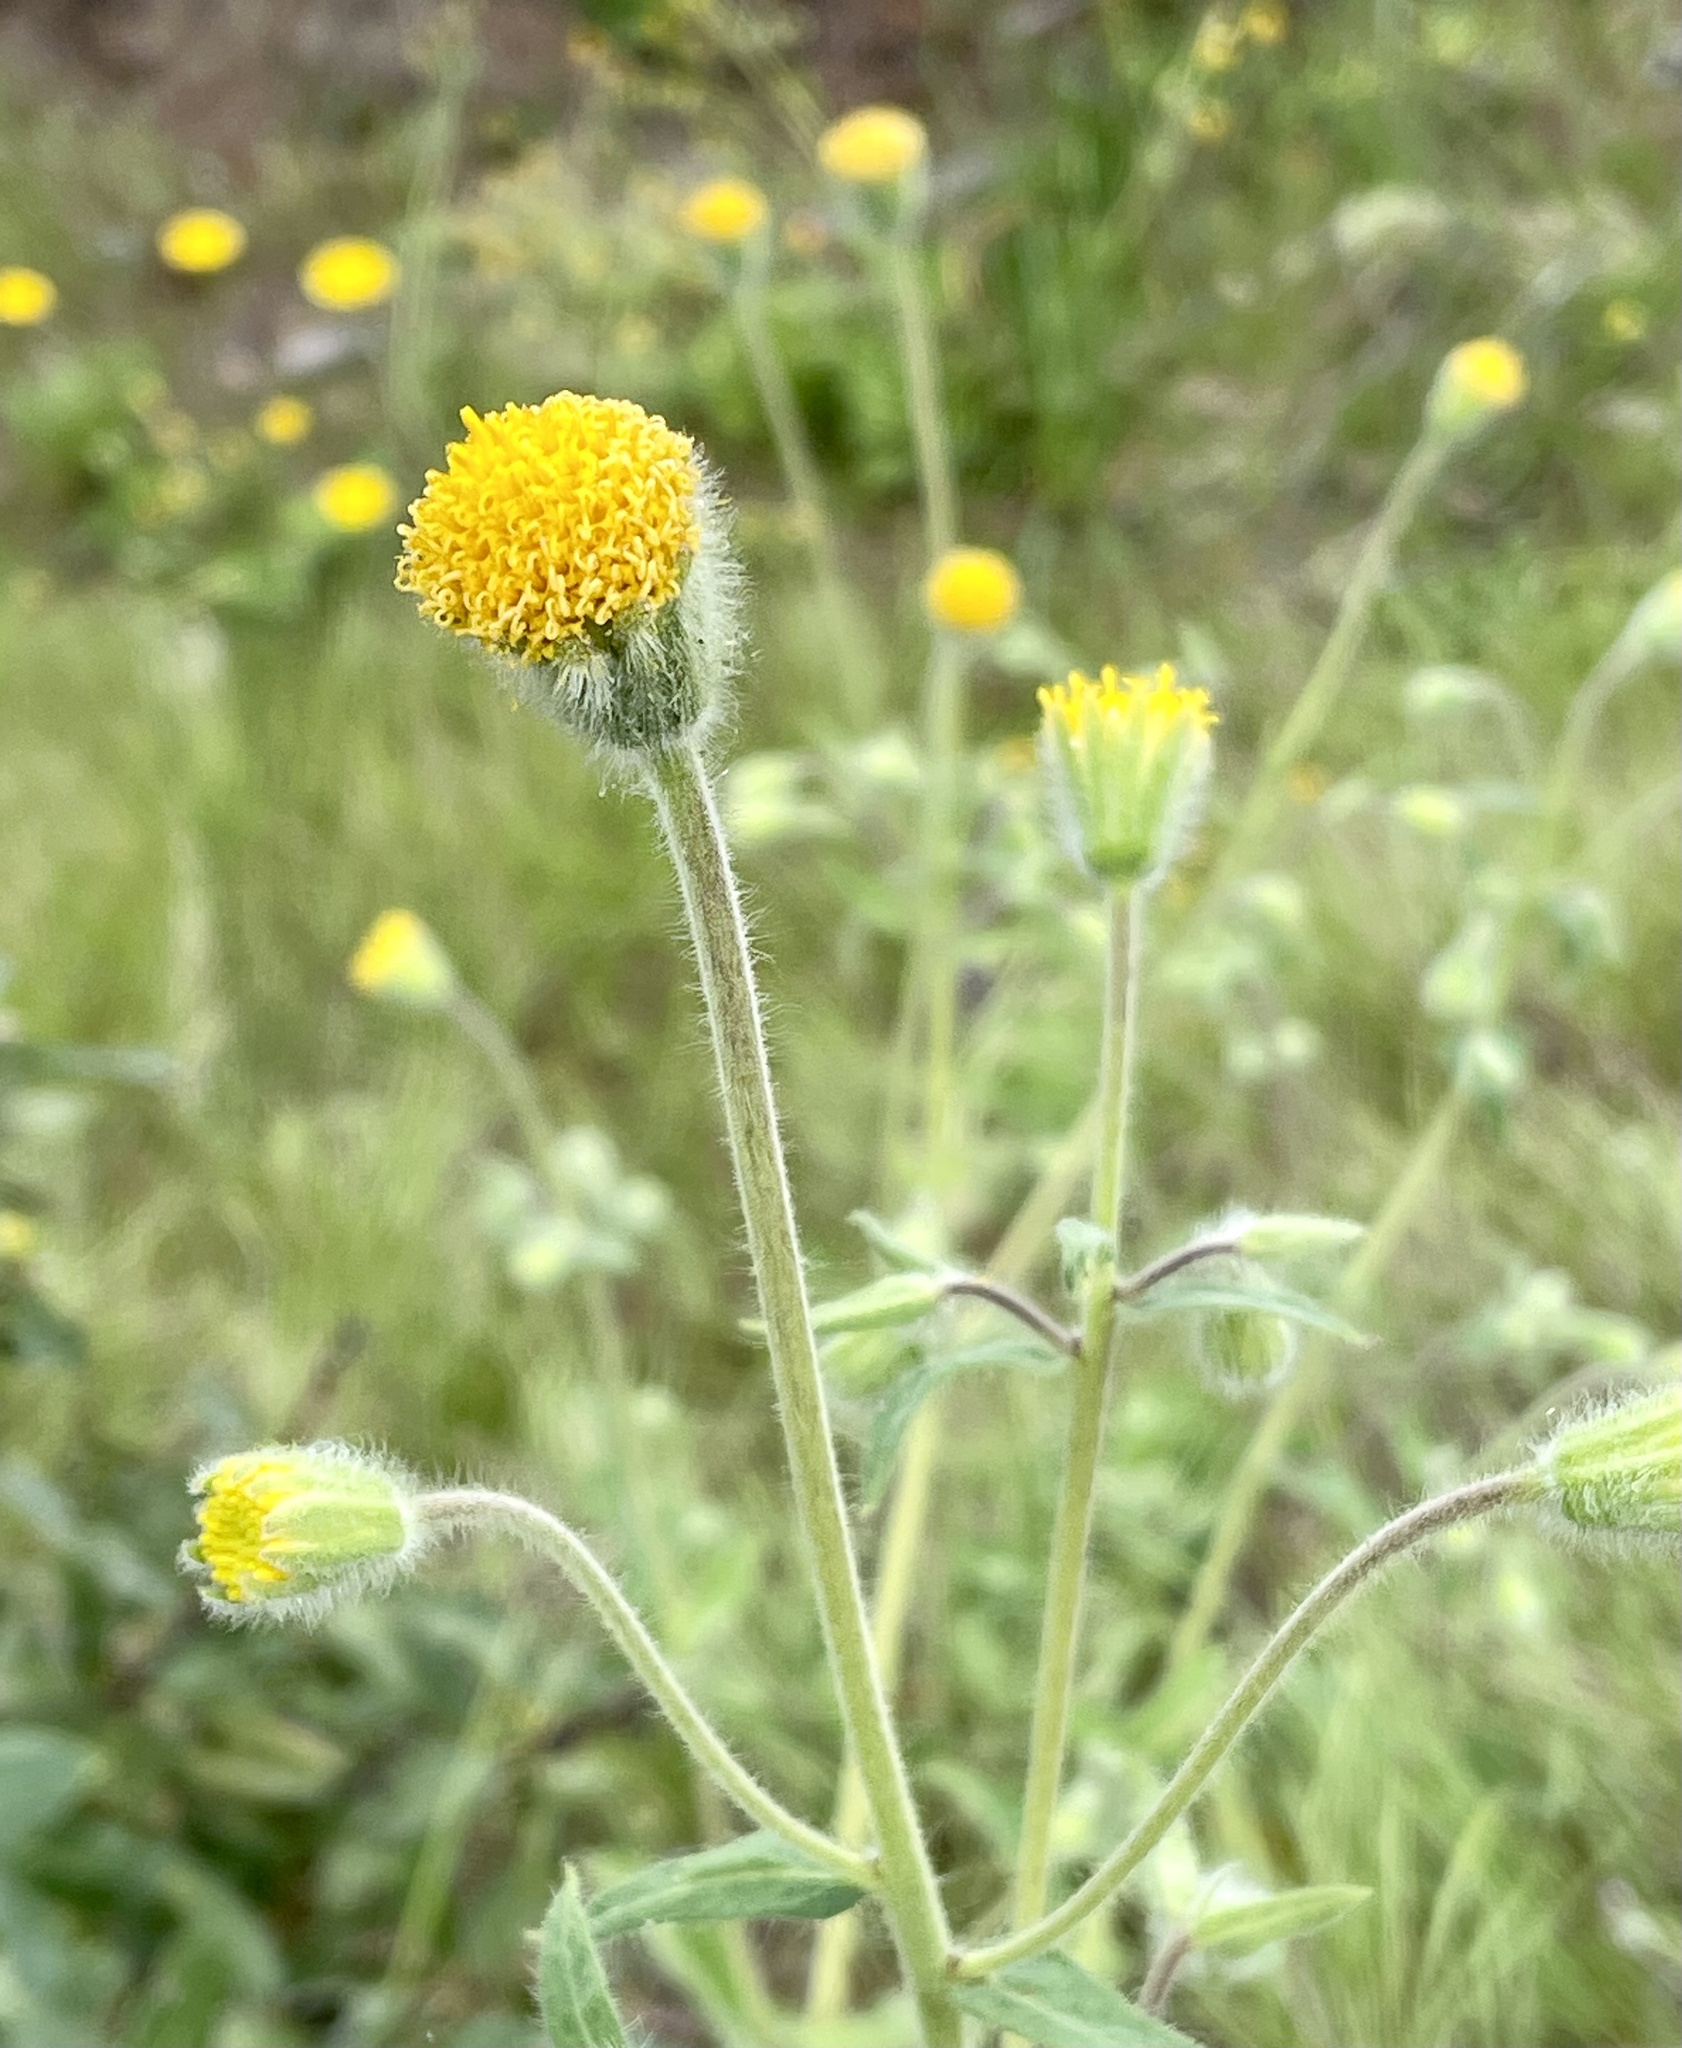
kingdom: Plantae
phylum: Tracheophyta
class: Magnoliopsida
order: Asterales
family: Asteraceae
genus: Arnica
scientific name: Arnica discoidea
